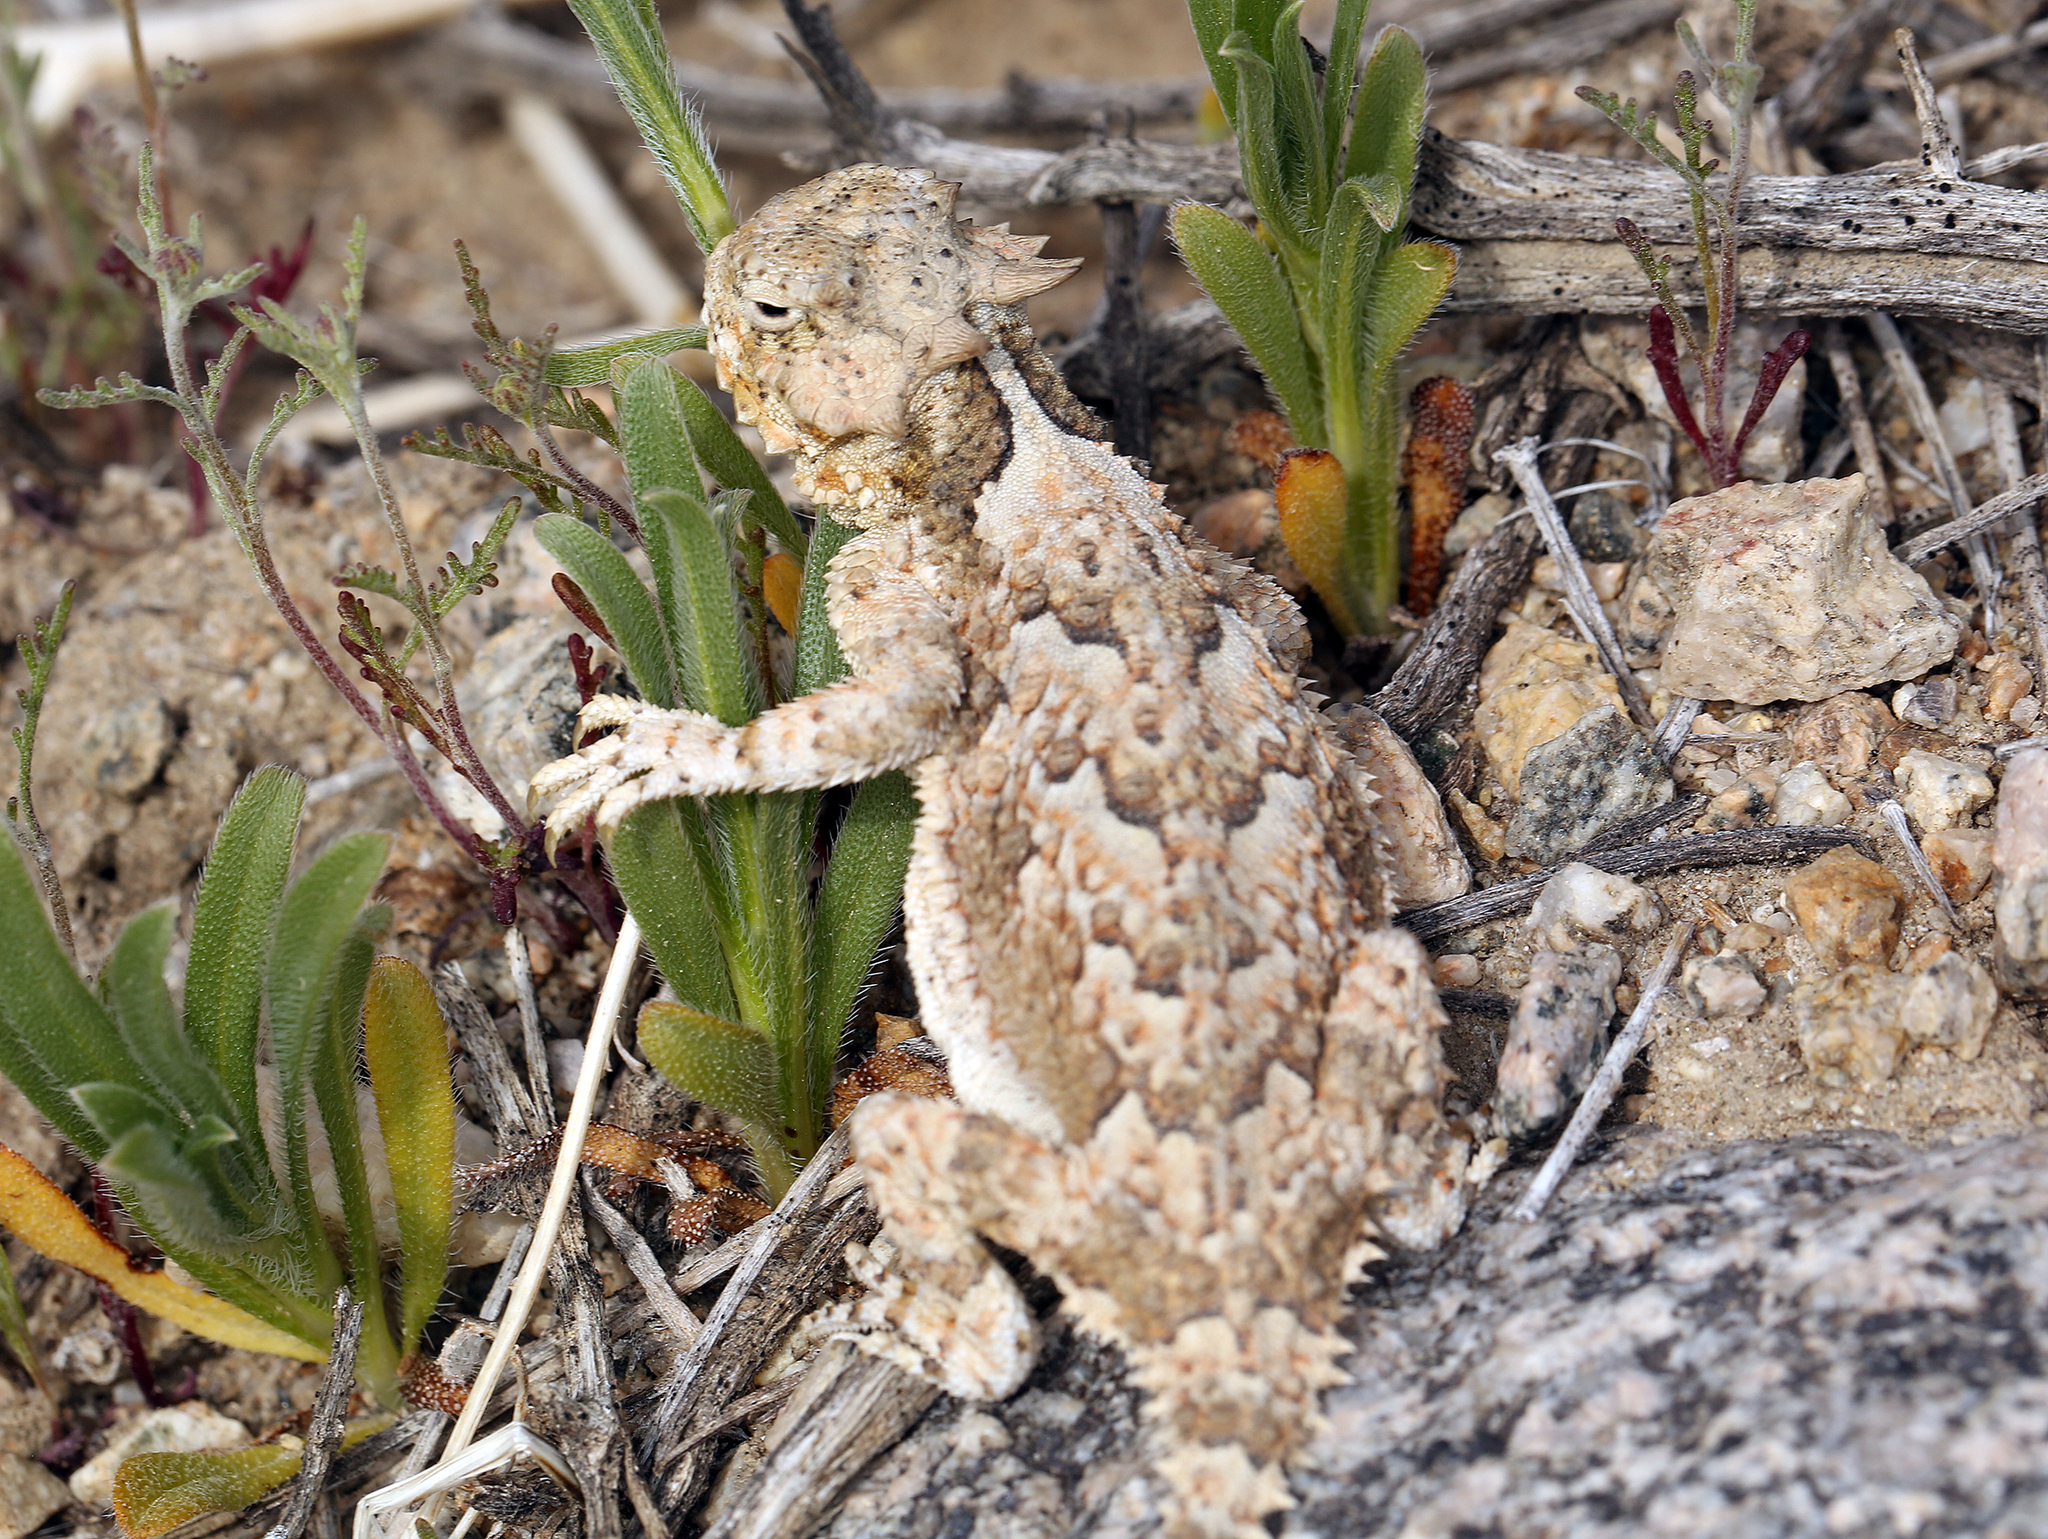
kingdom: Animalia
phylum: Chordata
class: Squamata
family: Phrynosomatidae
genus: Phrynosoma
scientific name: Phrynosoma platyrhinos
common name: Desert horned lizard
